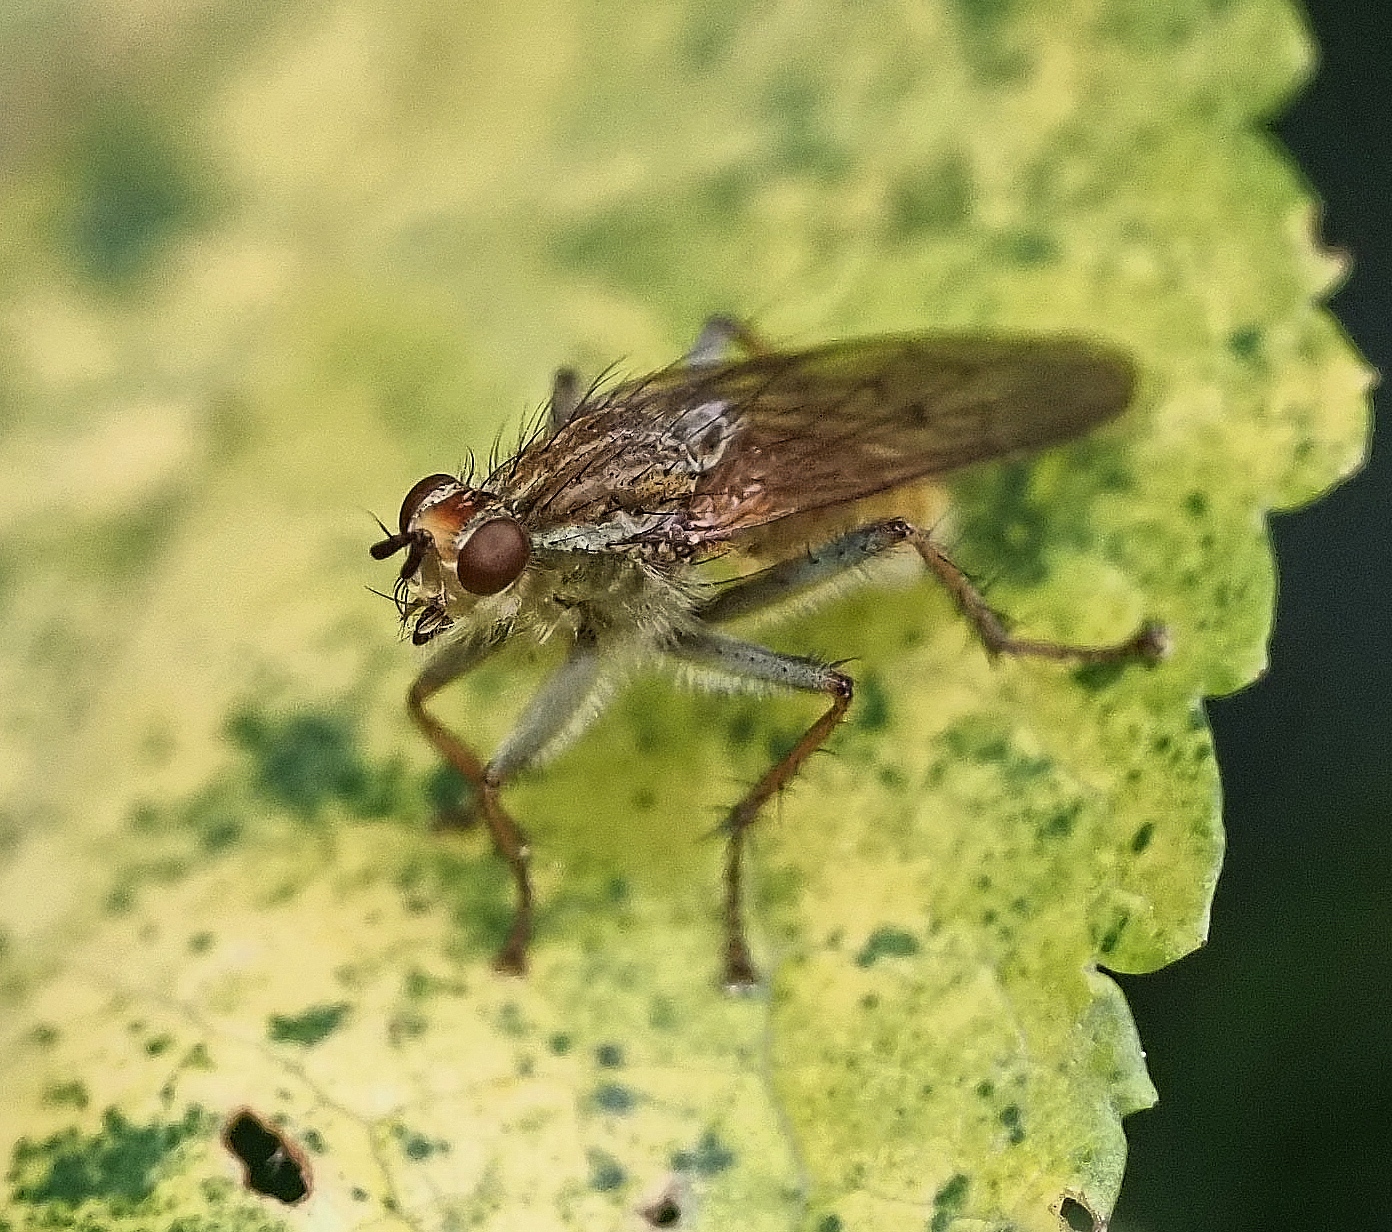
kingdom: Animalia
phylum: Arthropoda
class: Insecta
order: Diptera
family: Scathophagidae
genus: Scathophaga
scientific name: Scathophaga stercoraria
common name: Yellow dung fly
